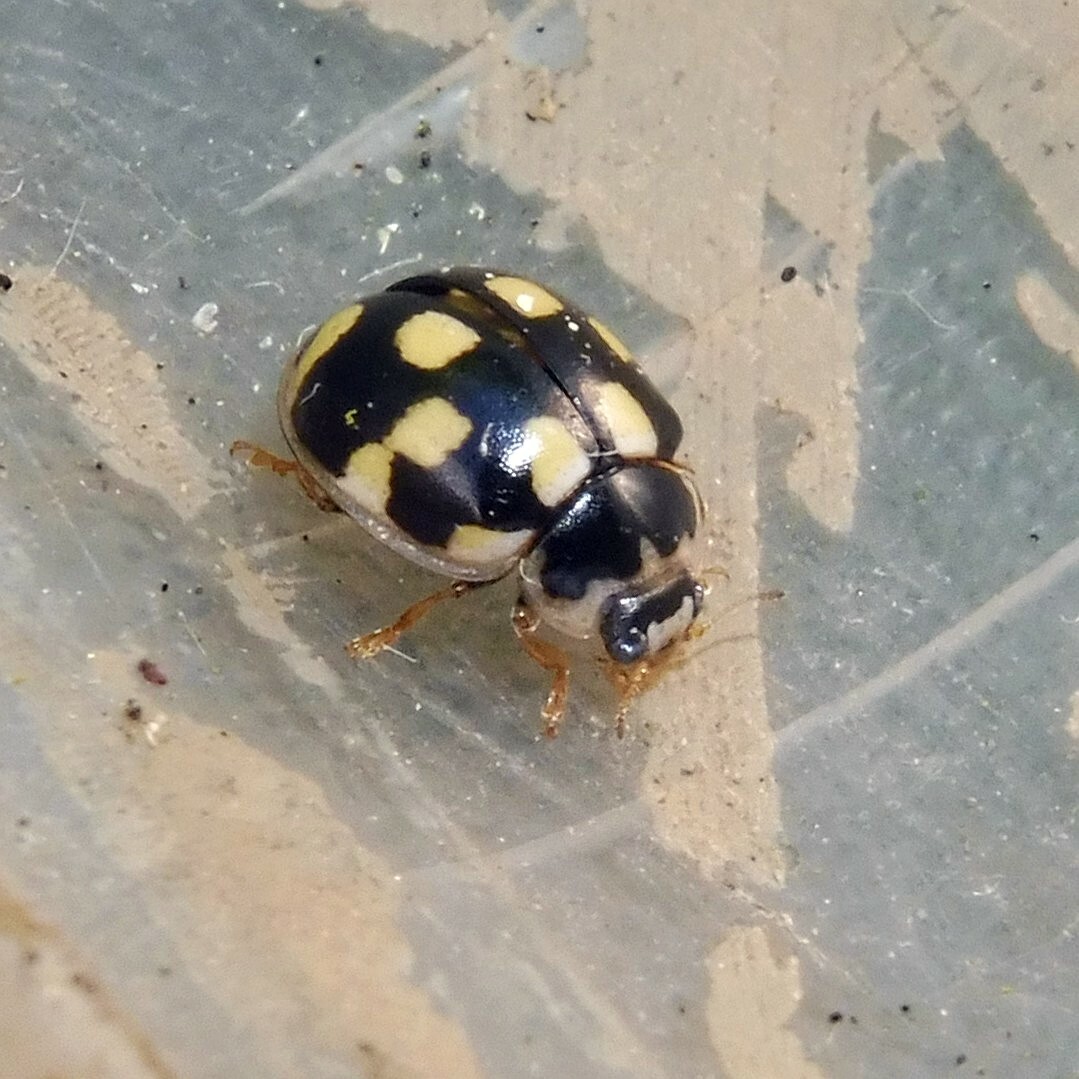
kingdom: Animalia
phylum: Arthropoda
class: Insecta
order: Coleoptera
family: Coccinellidae
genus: Propylaea
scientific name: Propylaea quatuordecimpunctata
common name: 14-spotted ladybird beetle
